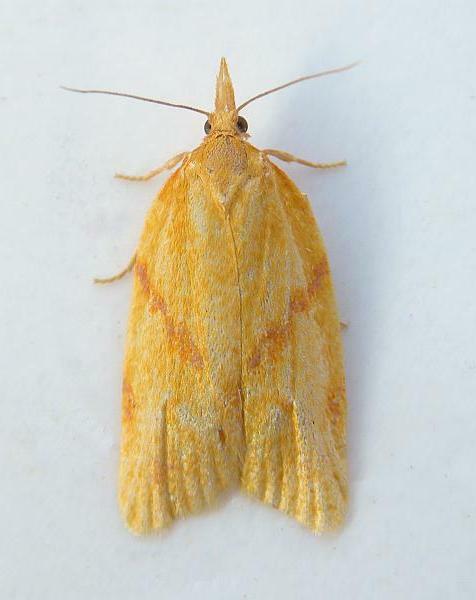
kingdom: Animalia
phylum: Arthropoda
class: Insecta
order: Lepidoptera
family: Tortricidae
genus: Sparganothis
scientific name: Sparganothis unifasciana
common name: One-lined sparganothis moth
